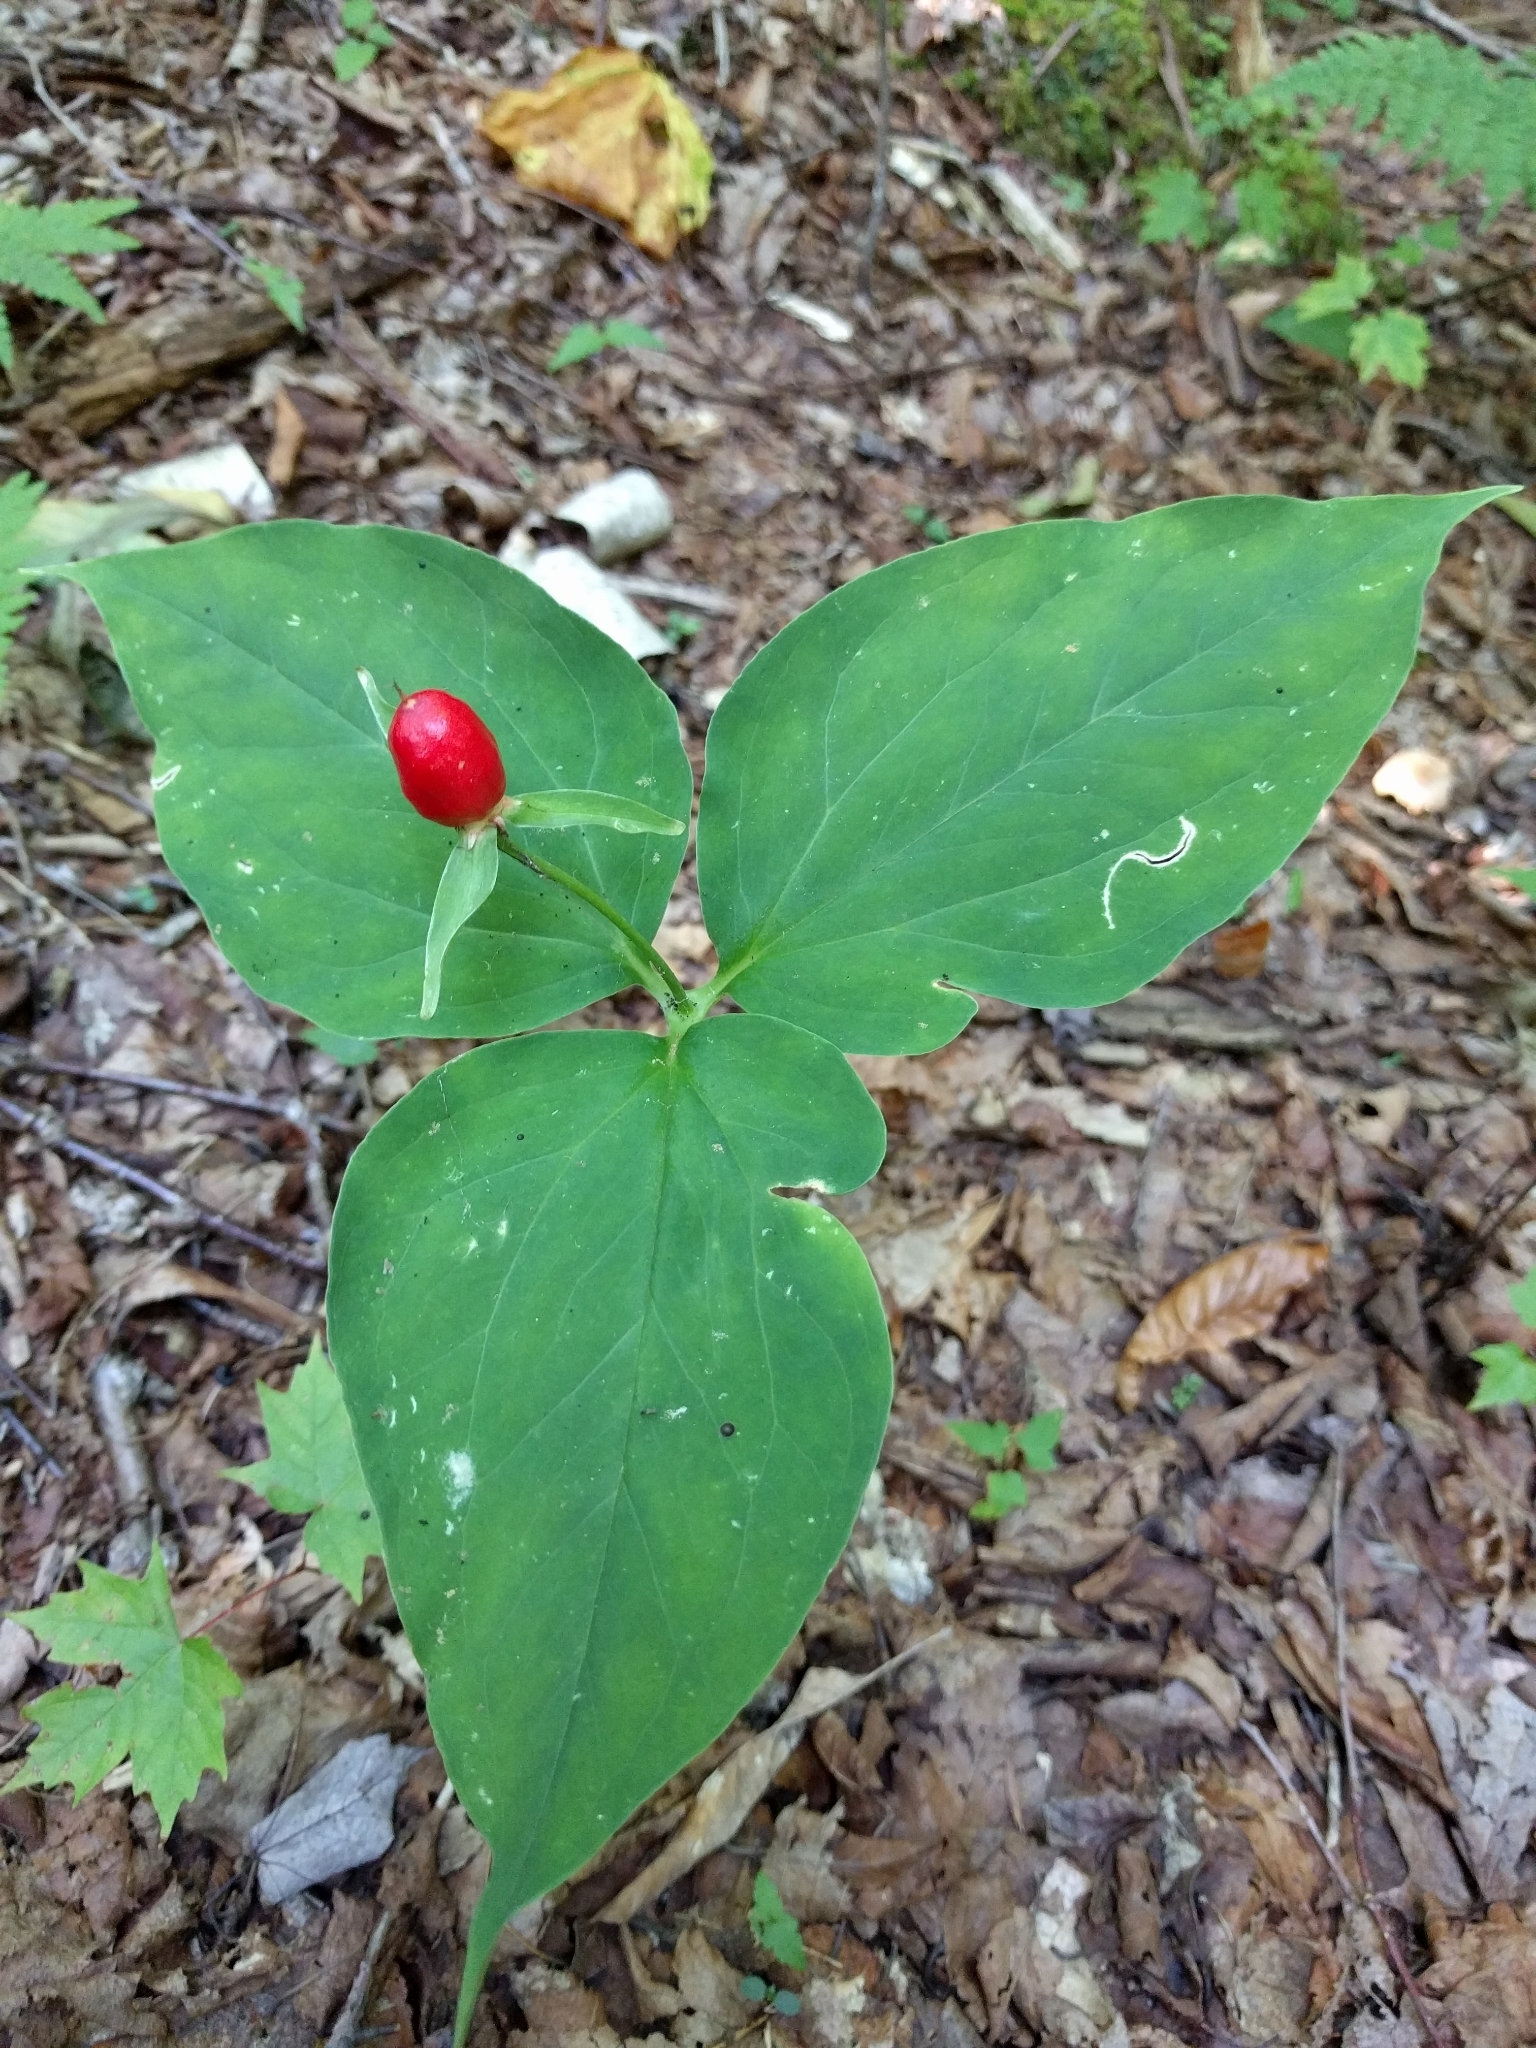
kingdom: Plantae
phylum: Tracheophyta
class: Liliopsida
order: Liliales
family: Melanthiaceae
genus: Trillium
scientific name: Trillium undulatum
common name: Paint trillium
